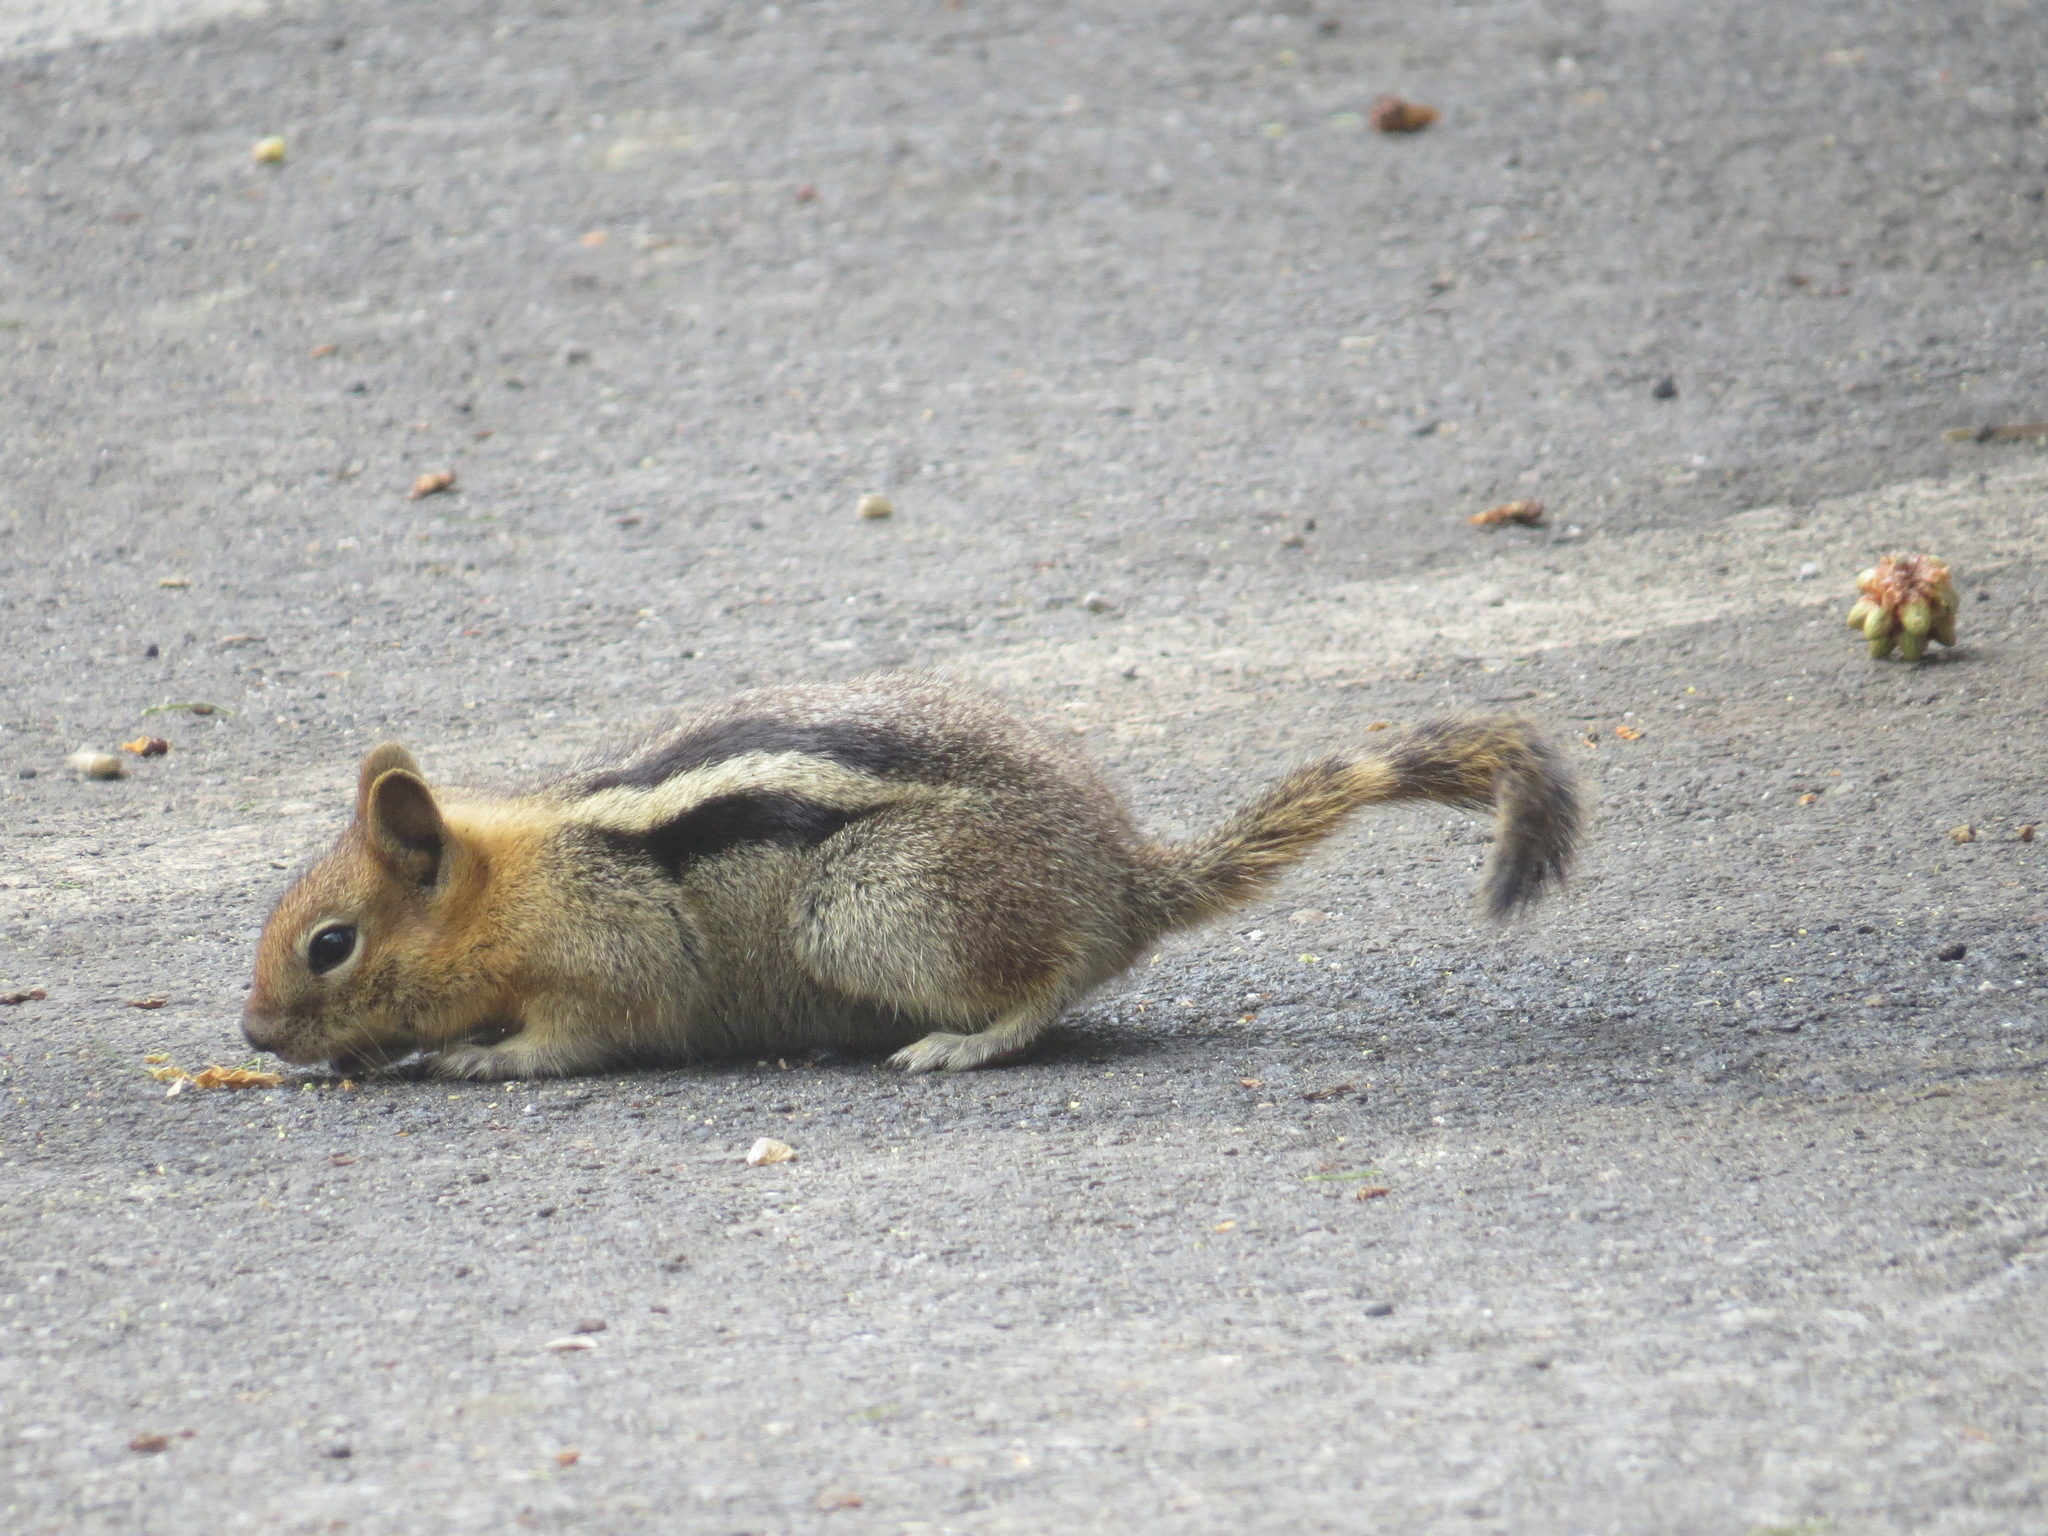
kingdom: Animalia
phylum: Chordata
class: Mammalia
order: Rodentia
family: Sciuridae
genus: Callospermophilus
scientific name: Callospermophilus lateralis
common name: Golden-mantled ground squirrel
